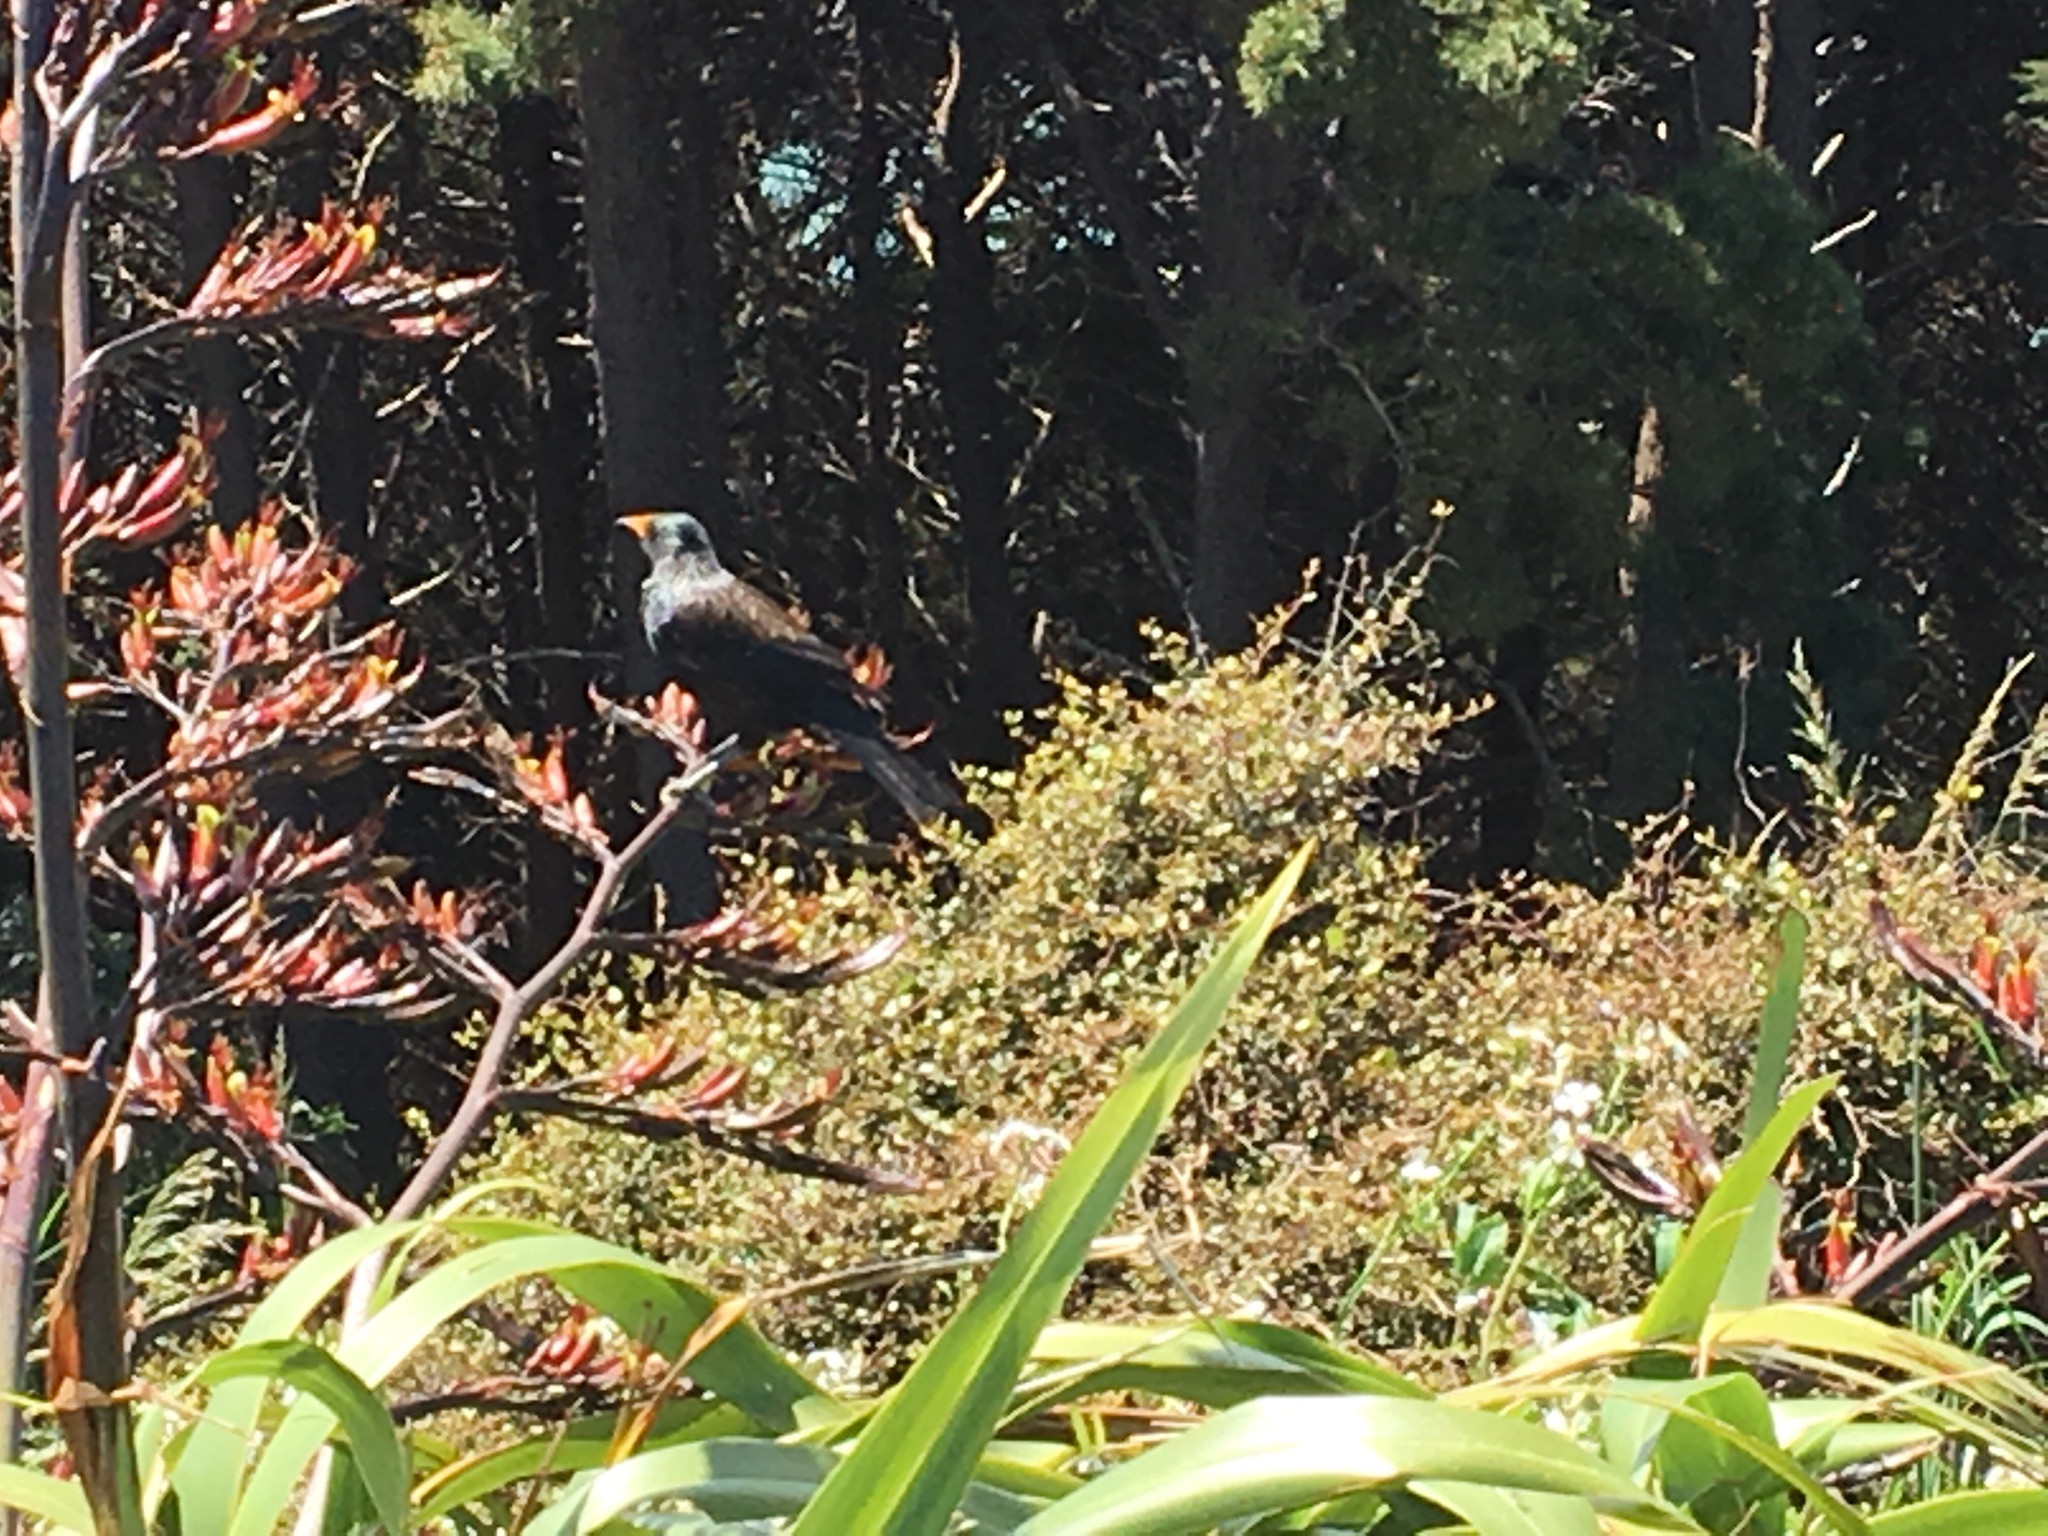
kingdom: Animalia
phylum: Chordata
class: Aves
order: Passeriformes
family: Meliphagidae
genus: Prosthemadera
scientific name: Prosthemadera novaeseelandiae
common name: Tui
